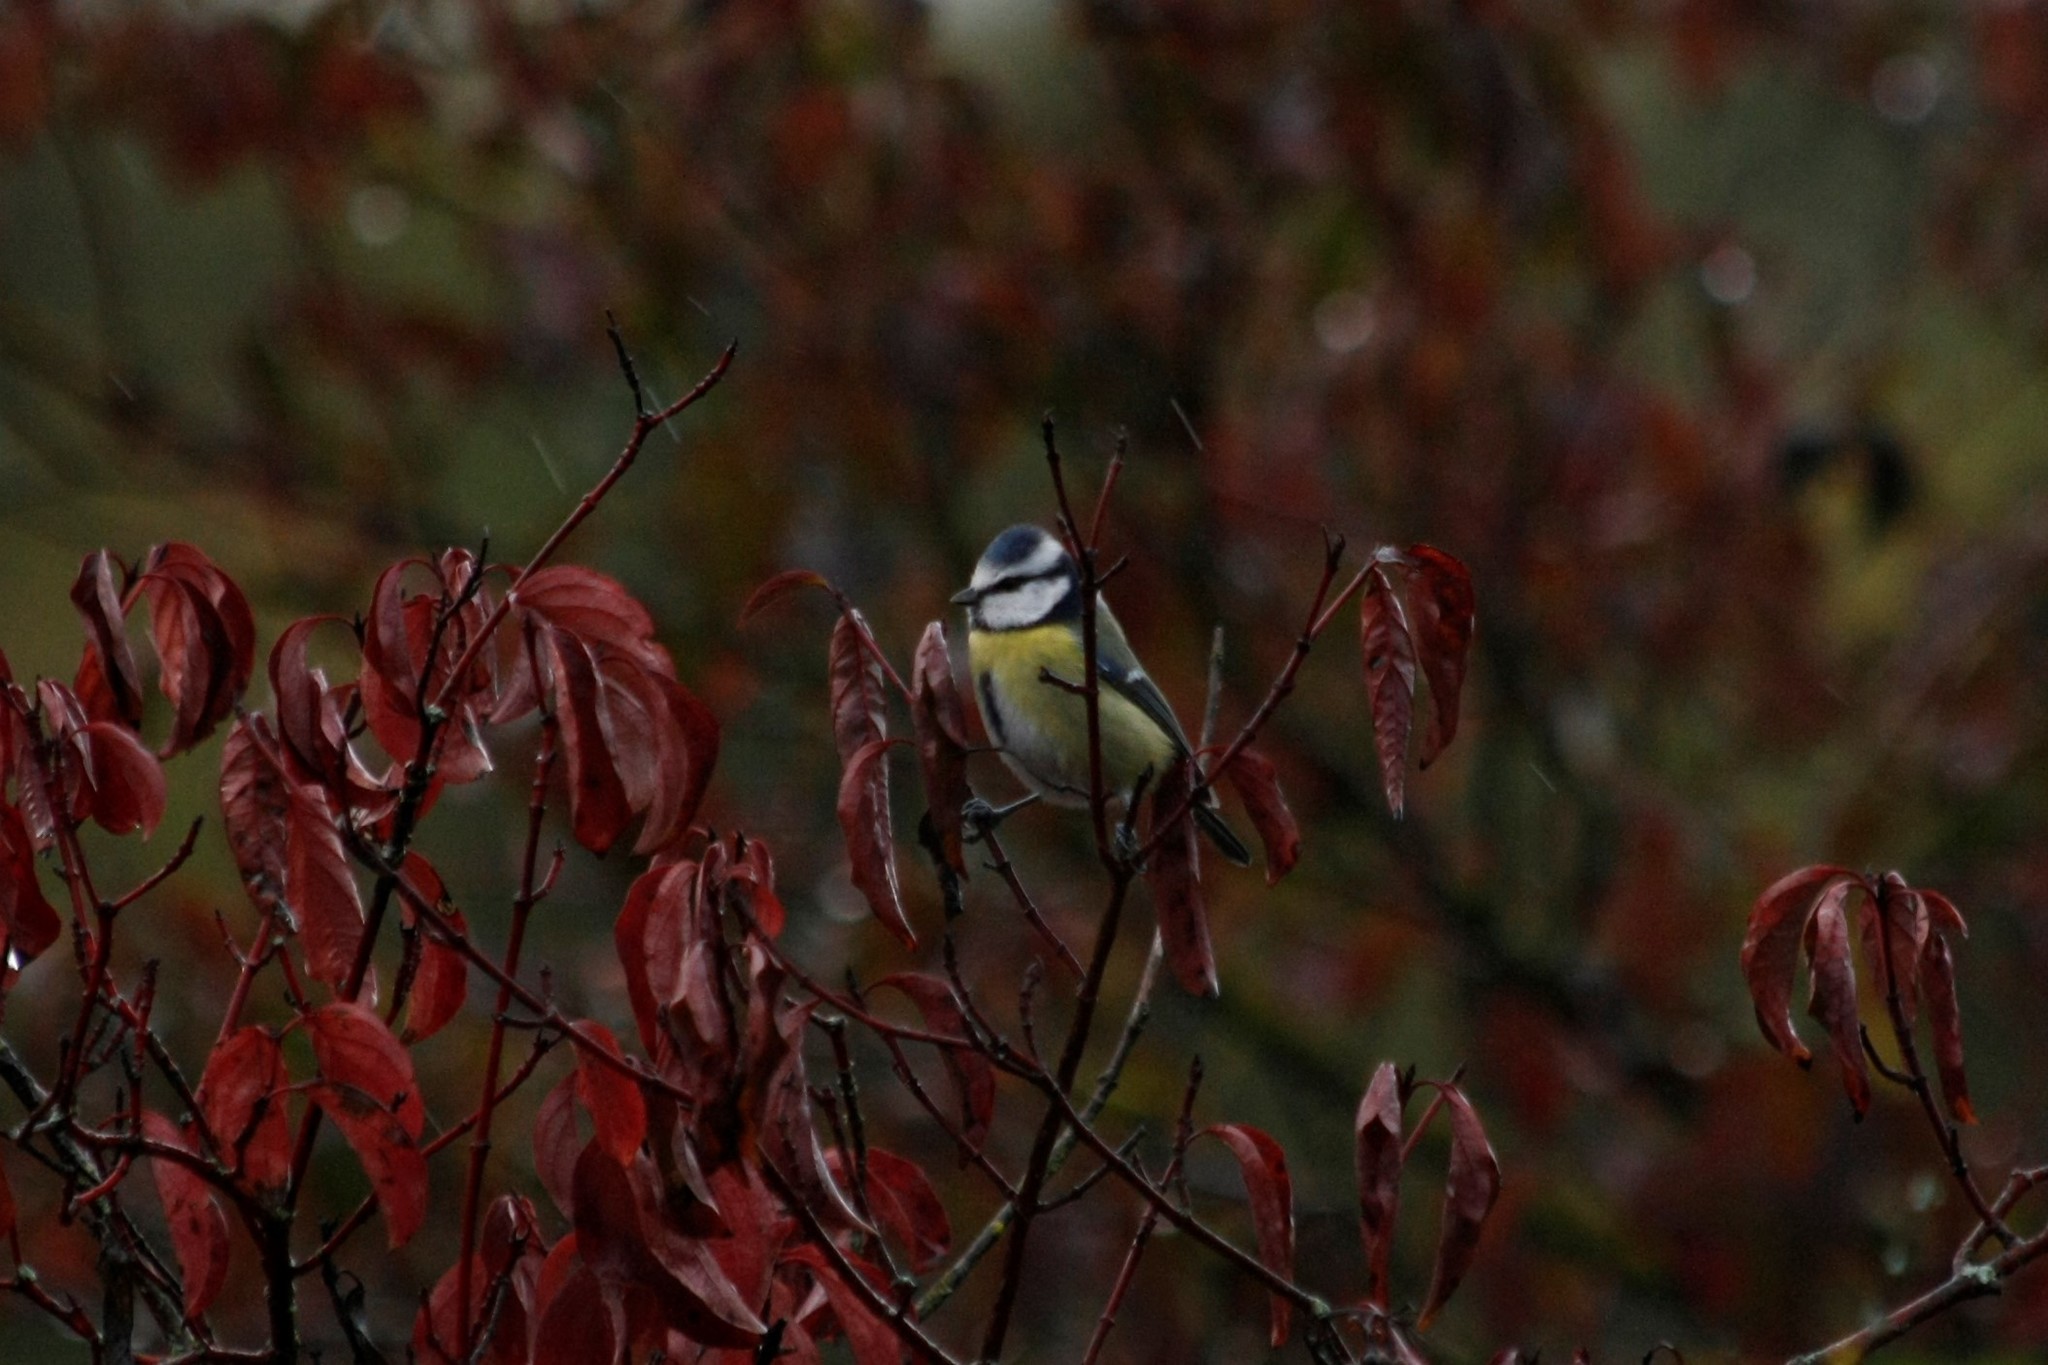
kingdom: Animalia
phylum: Chordata
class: Aves
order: Passeriformes
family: Paridae
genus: Cyanistes
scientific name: Cyanistes caeruleus
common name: Eurasian blue tit
